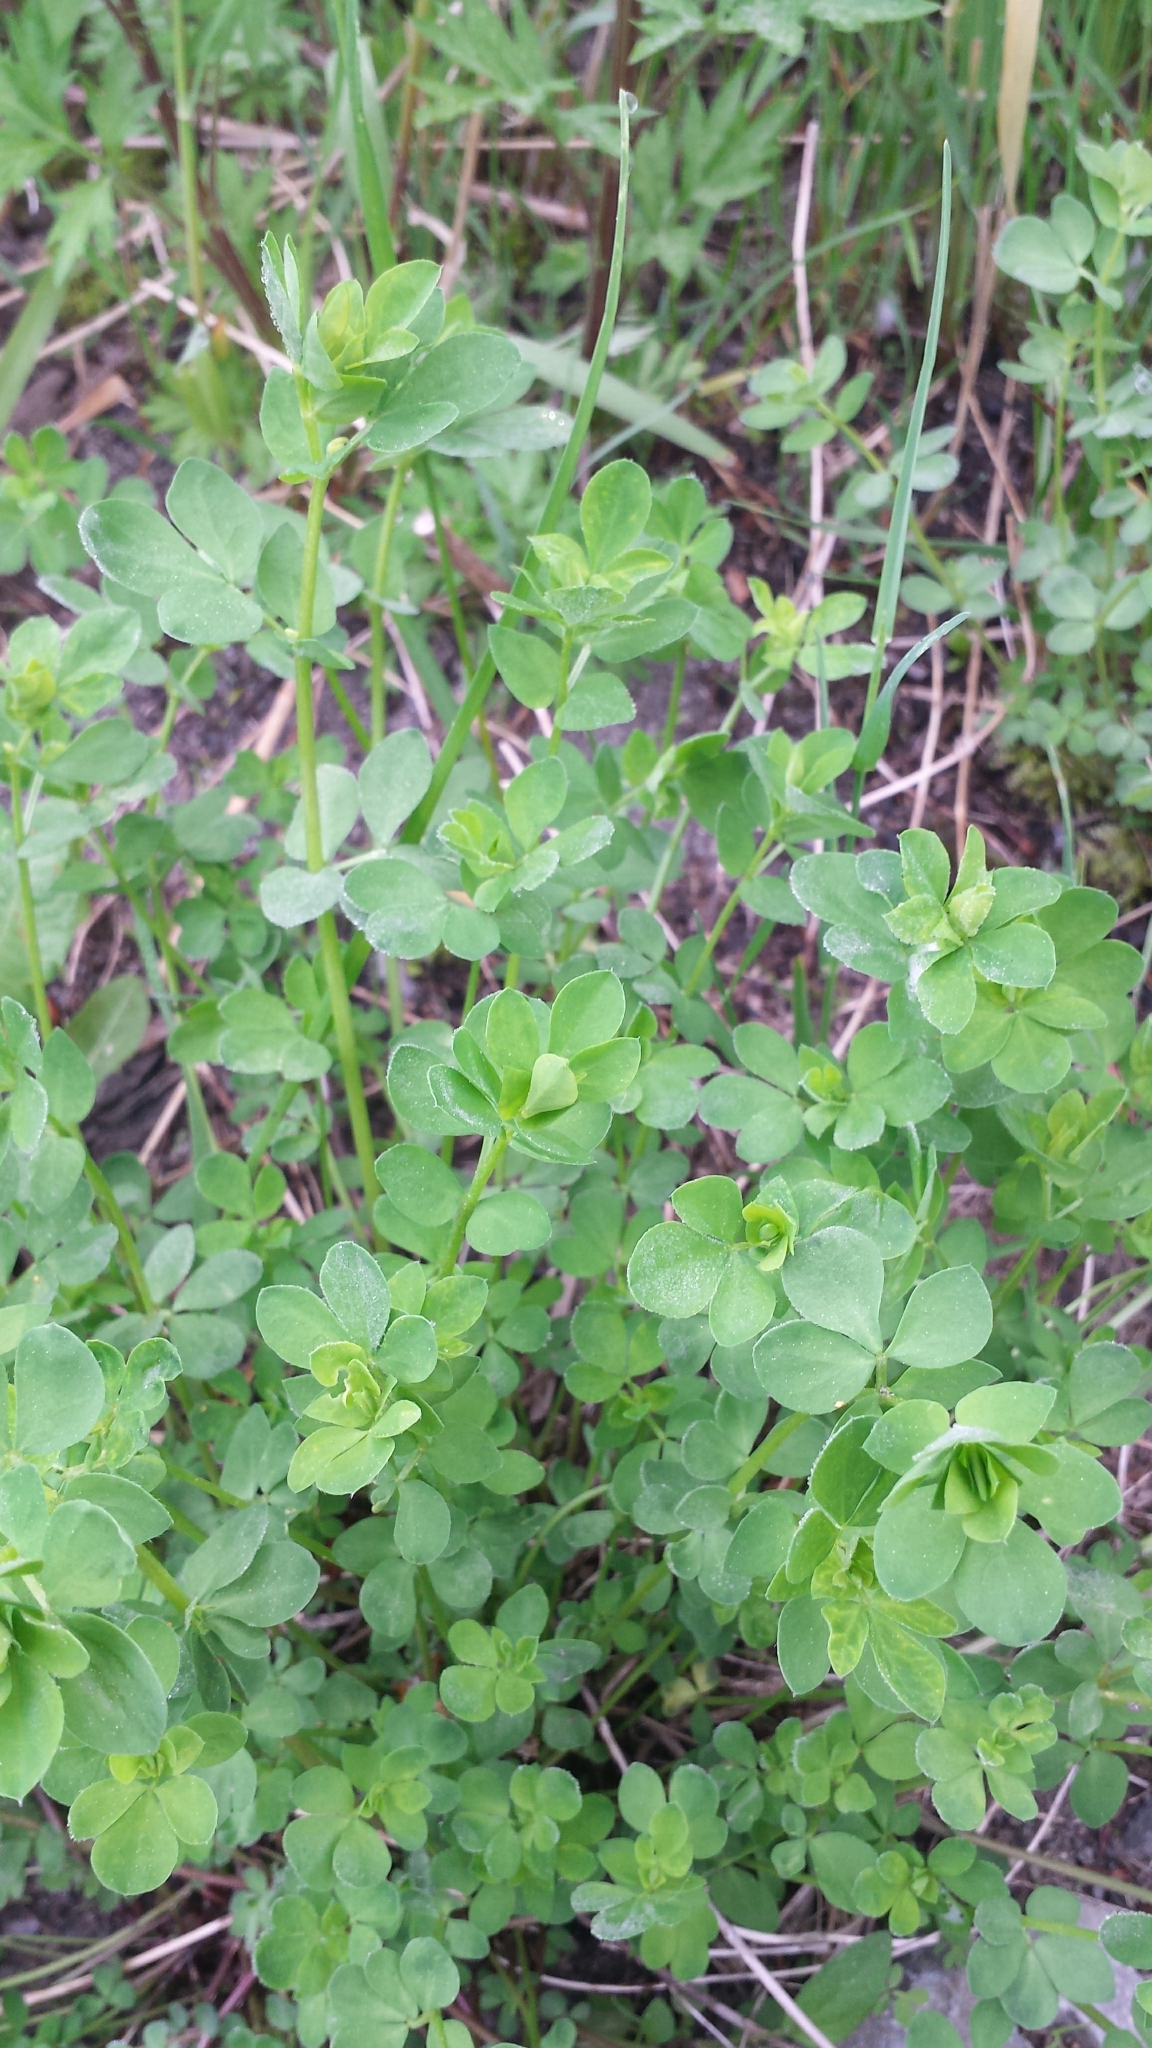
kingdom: Plantae
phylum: Tracheophyta
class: Magnoliopsida
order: Fabales
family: Fabaceae
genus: Lotus
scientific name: Lotus corniculatus
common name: Common bird's-foot-trefoil
